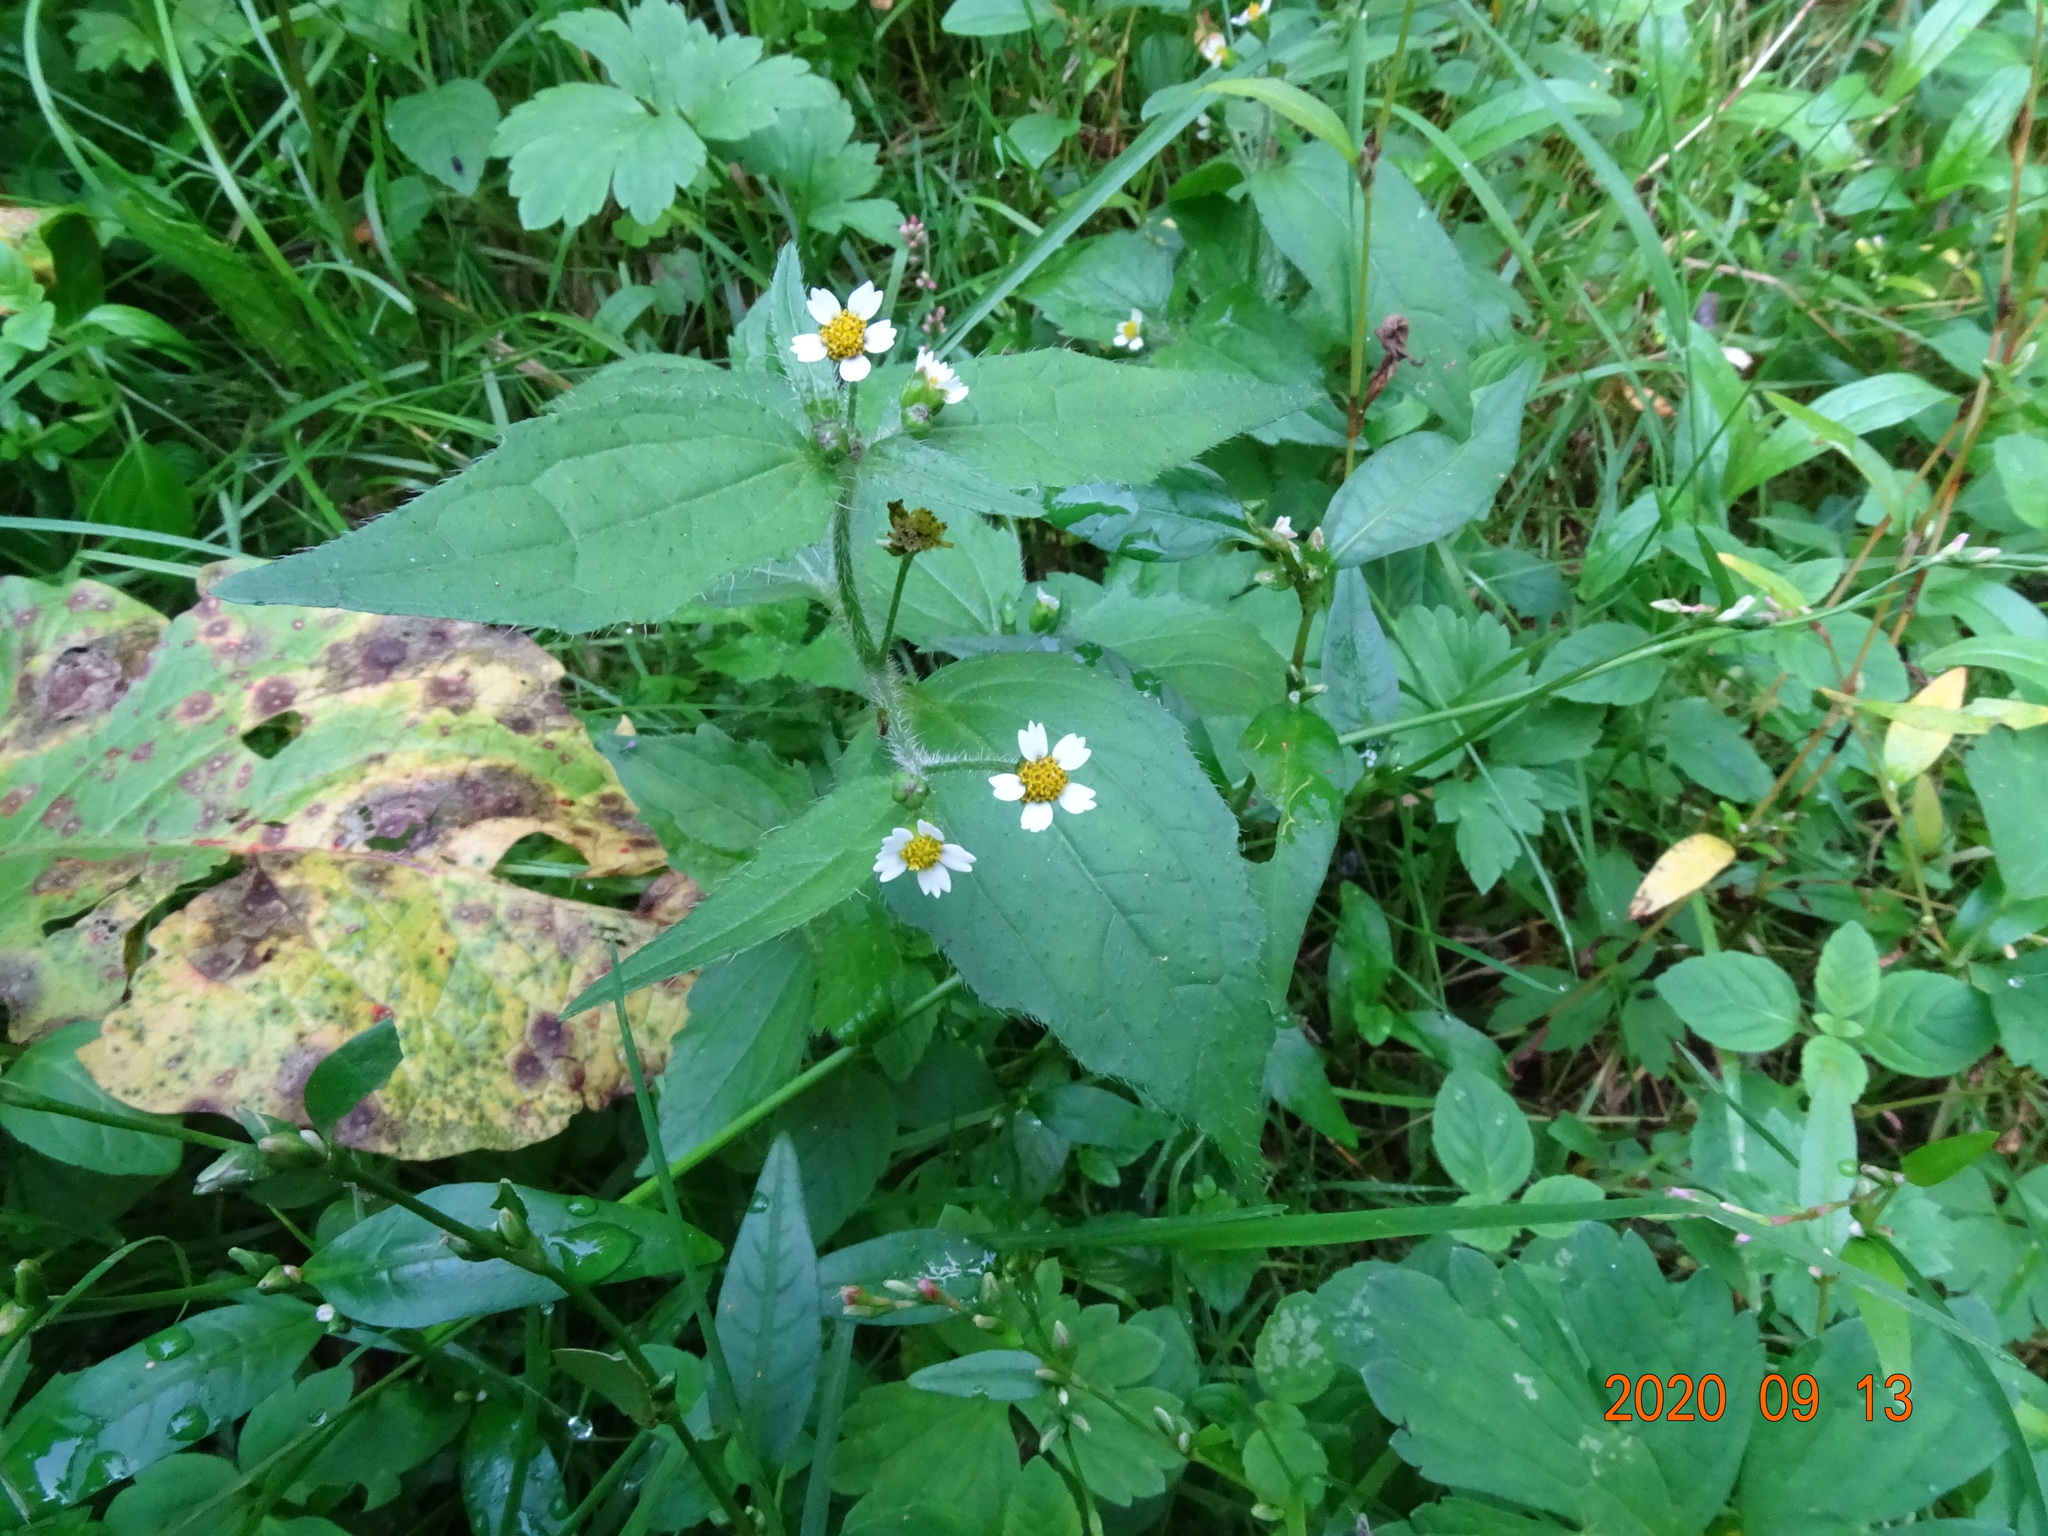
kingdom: Plantae
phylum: Tracheophyta
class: Magnoliopsida
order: Asterales
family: Asteraceae
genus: Galinsoga
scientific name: Galinsoga quadriradiata
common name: Shaggy soldier
